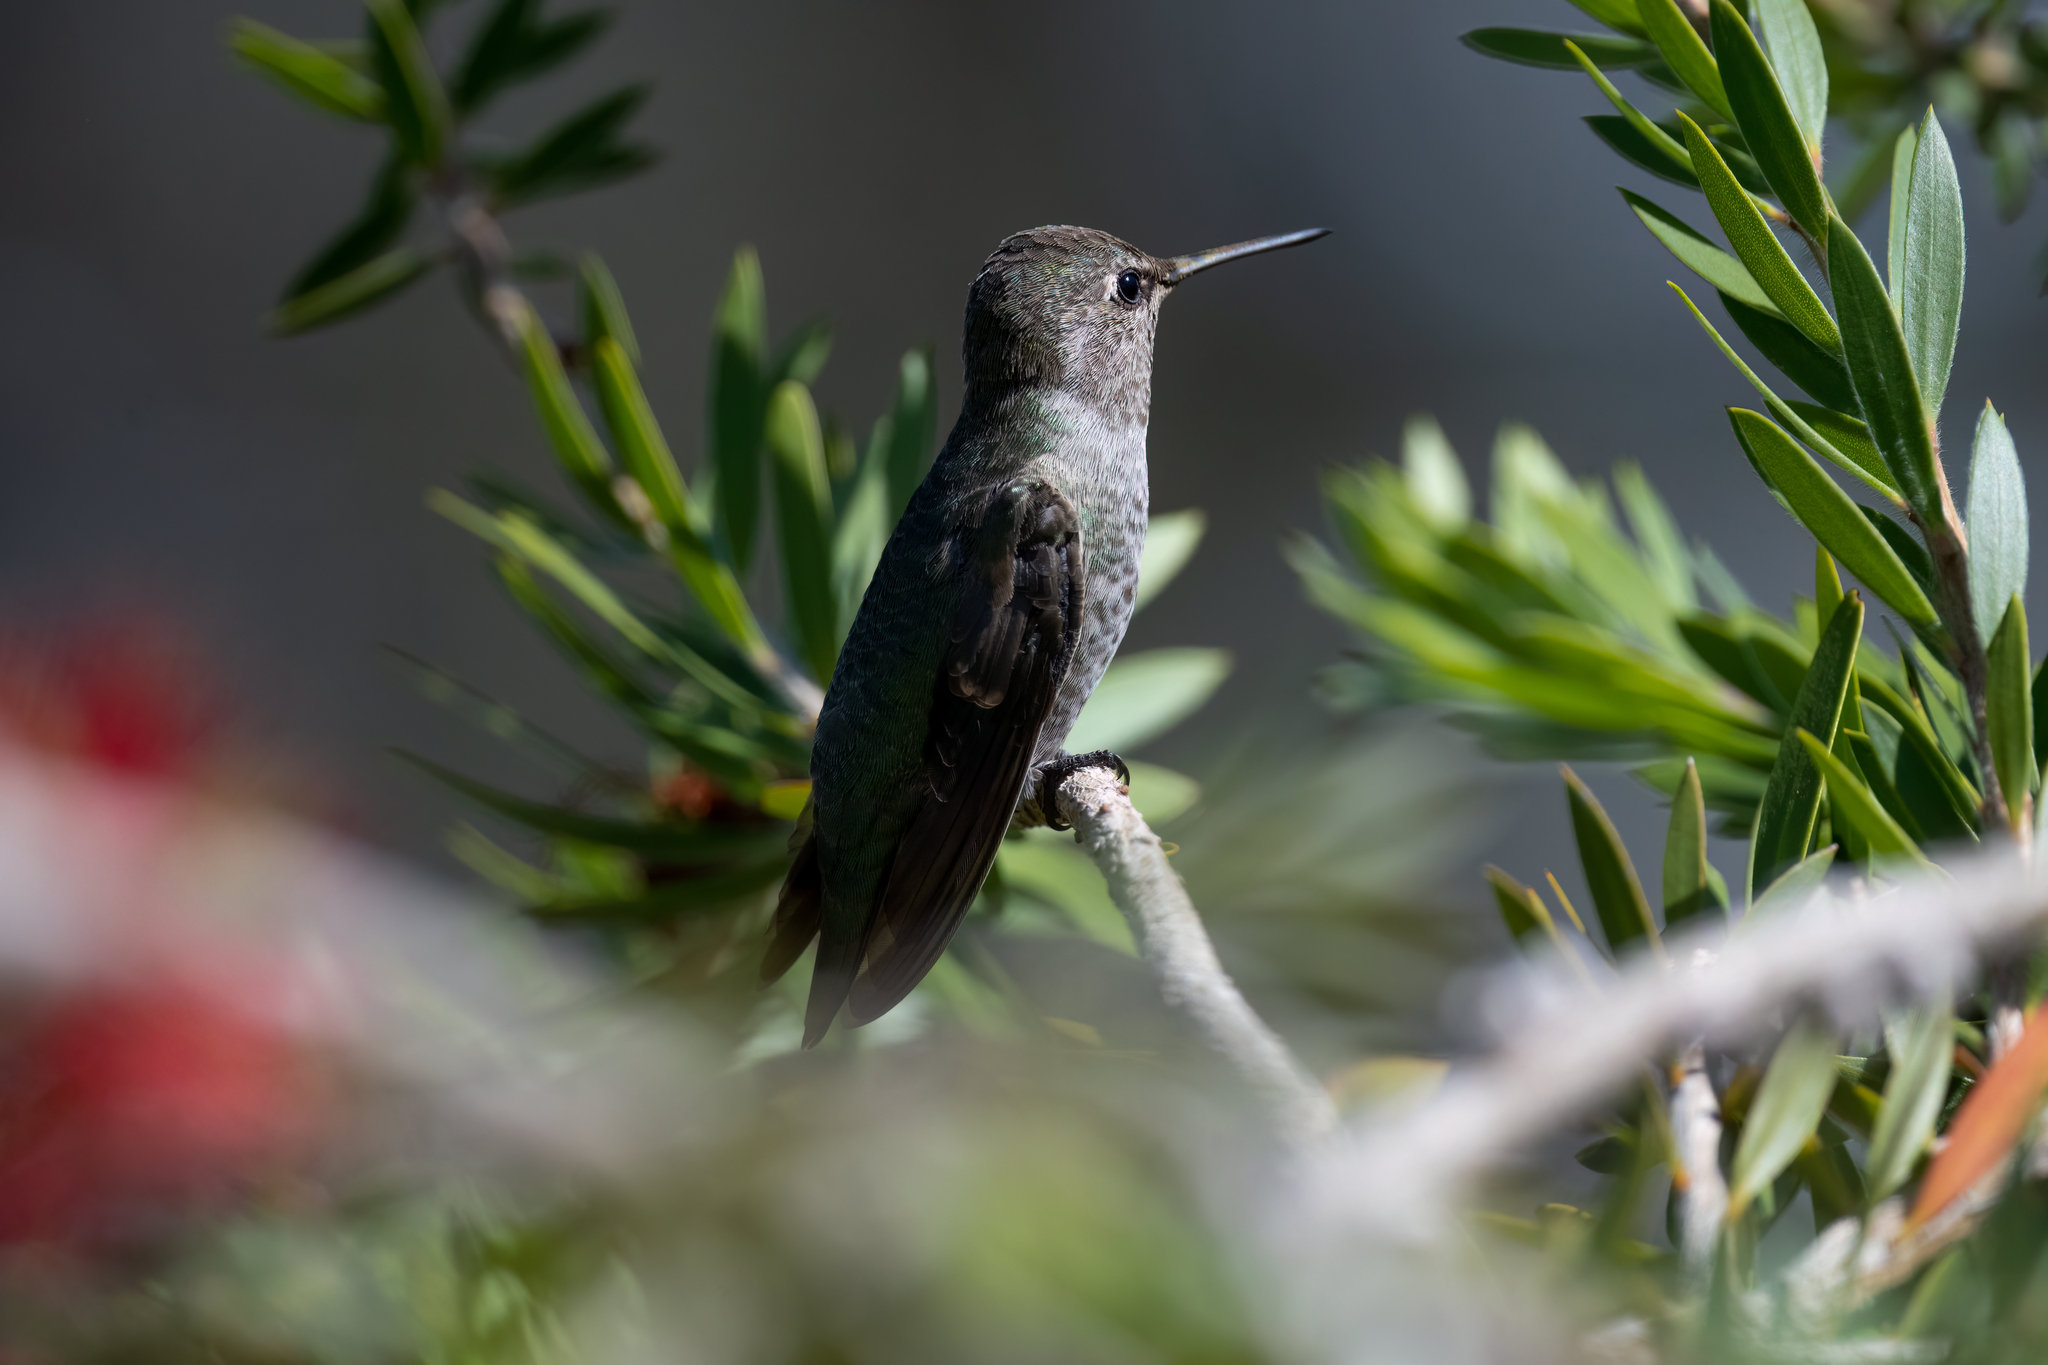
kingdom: Animalia
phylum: Chordata
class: Aves
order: Apodiformes
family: Trochilidae
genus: Calypte
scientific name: Calypte anna
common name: Anna's hummingbird
